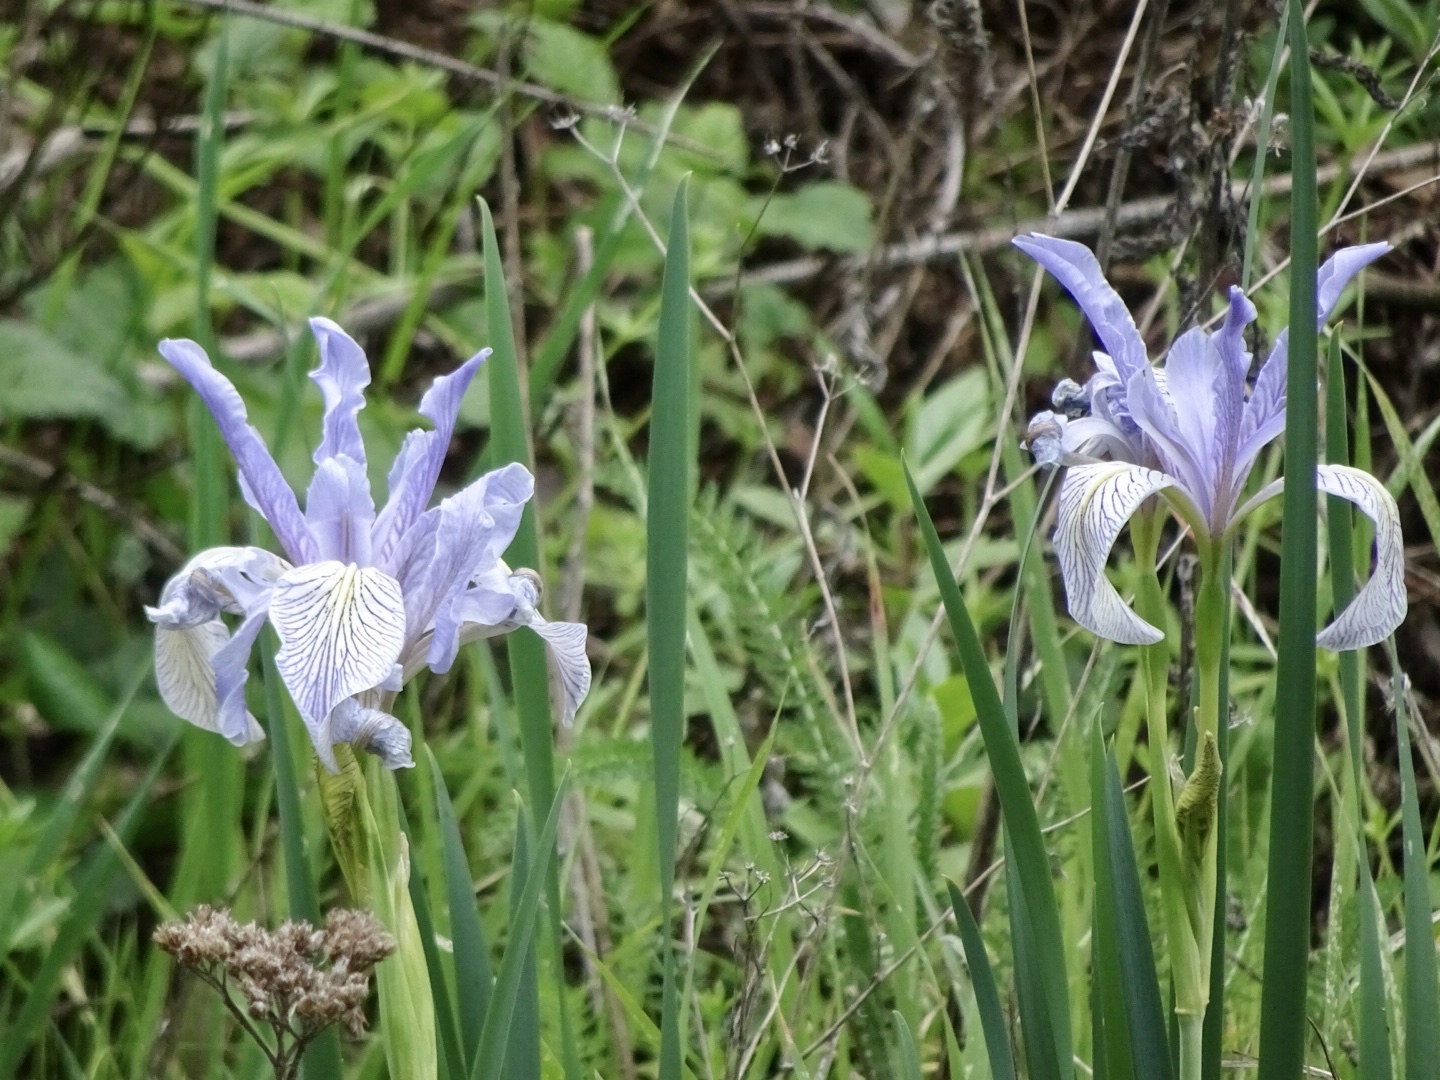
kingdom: Plantae
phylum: Tracheophyta
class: Liliopsida
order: Asparagales
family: Iridaceae
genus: Iris
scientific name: Iris longipetala
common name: Long-petal iris
